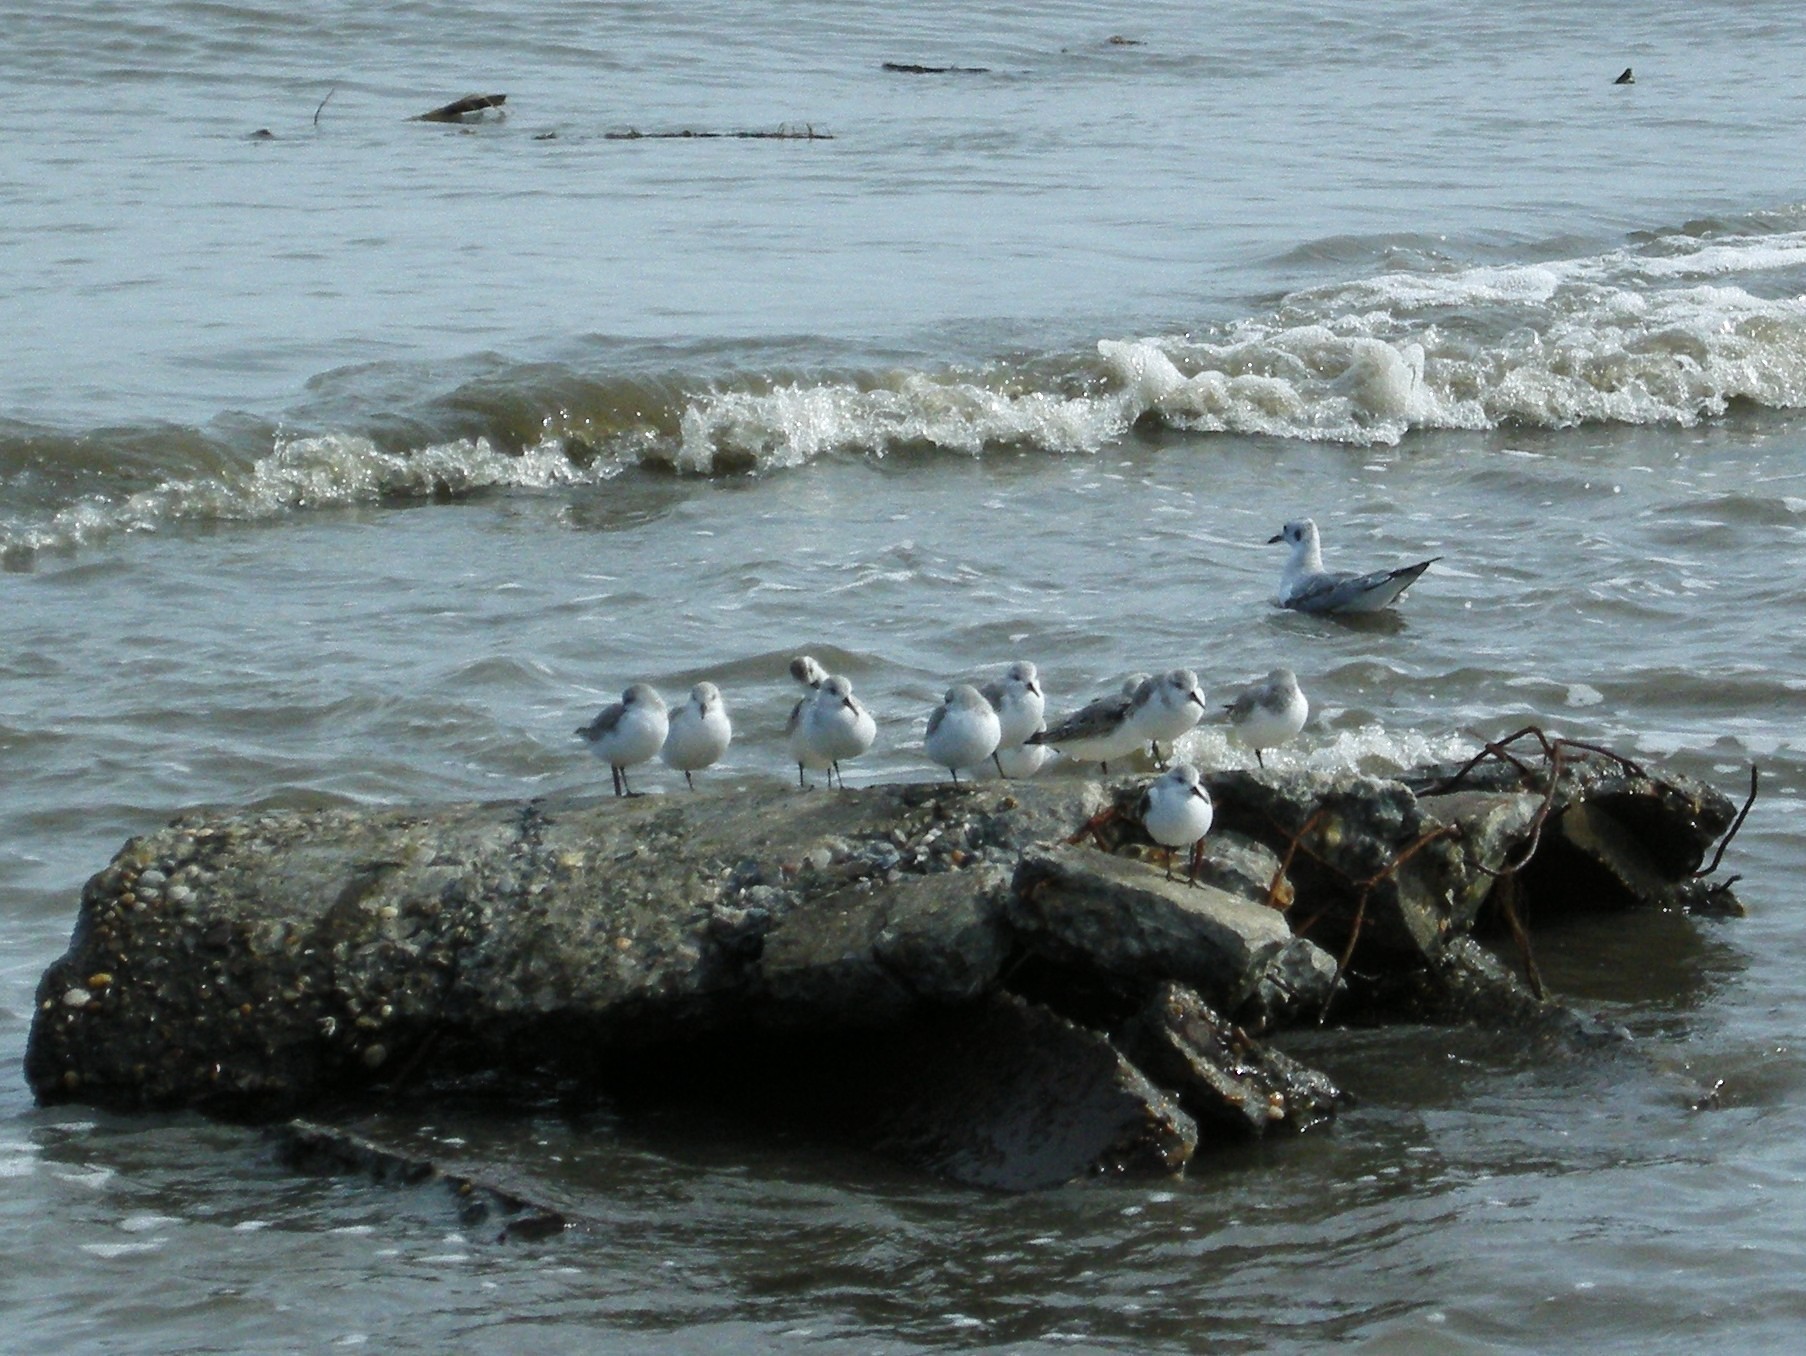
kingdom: Animalia
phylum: Chordata
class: Aves
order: Charadriiformes
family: Scolopacidae
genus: Calidris
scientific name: Calidris alba
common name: Sanderling
